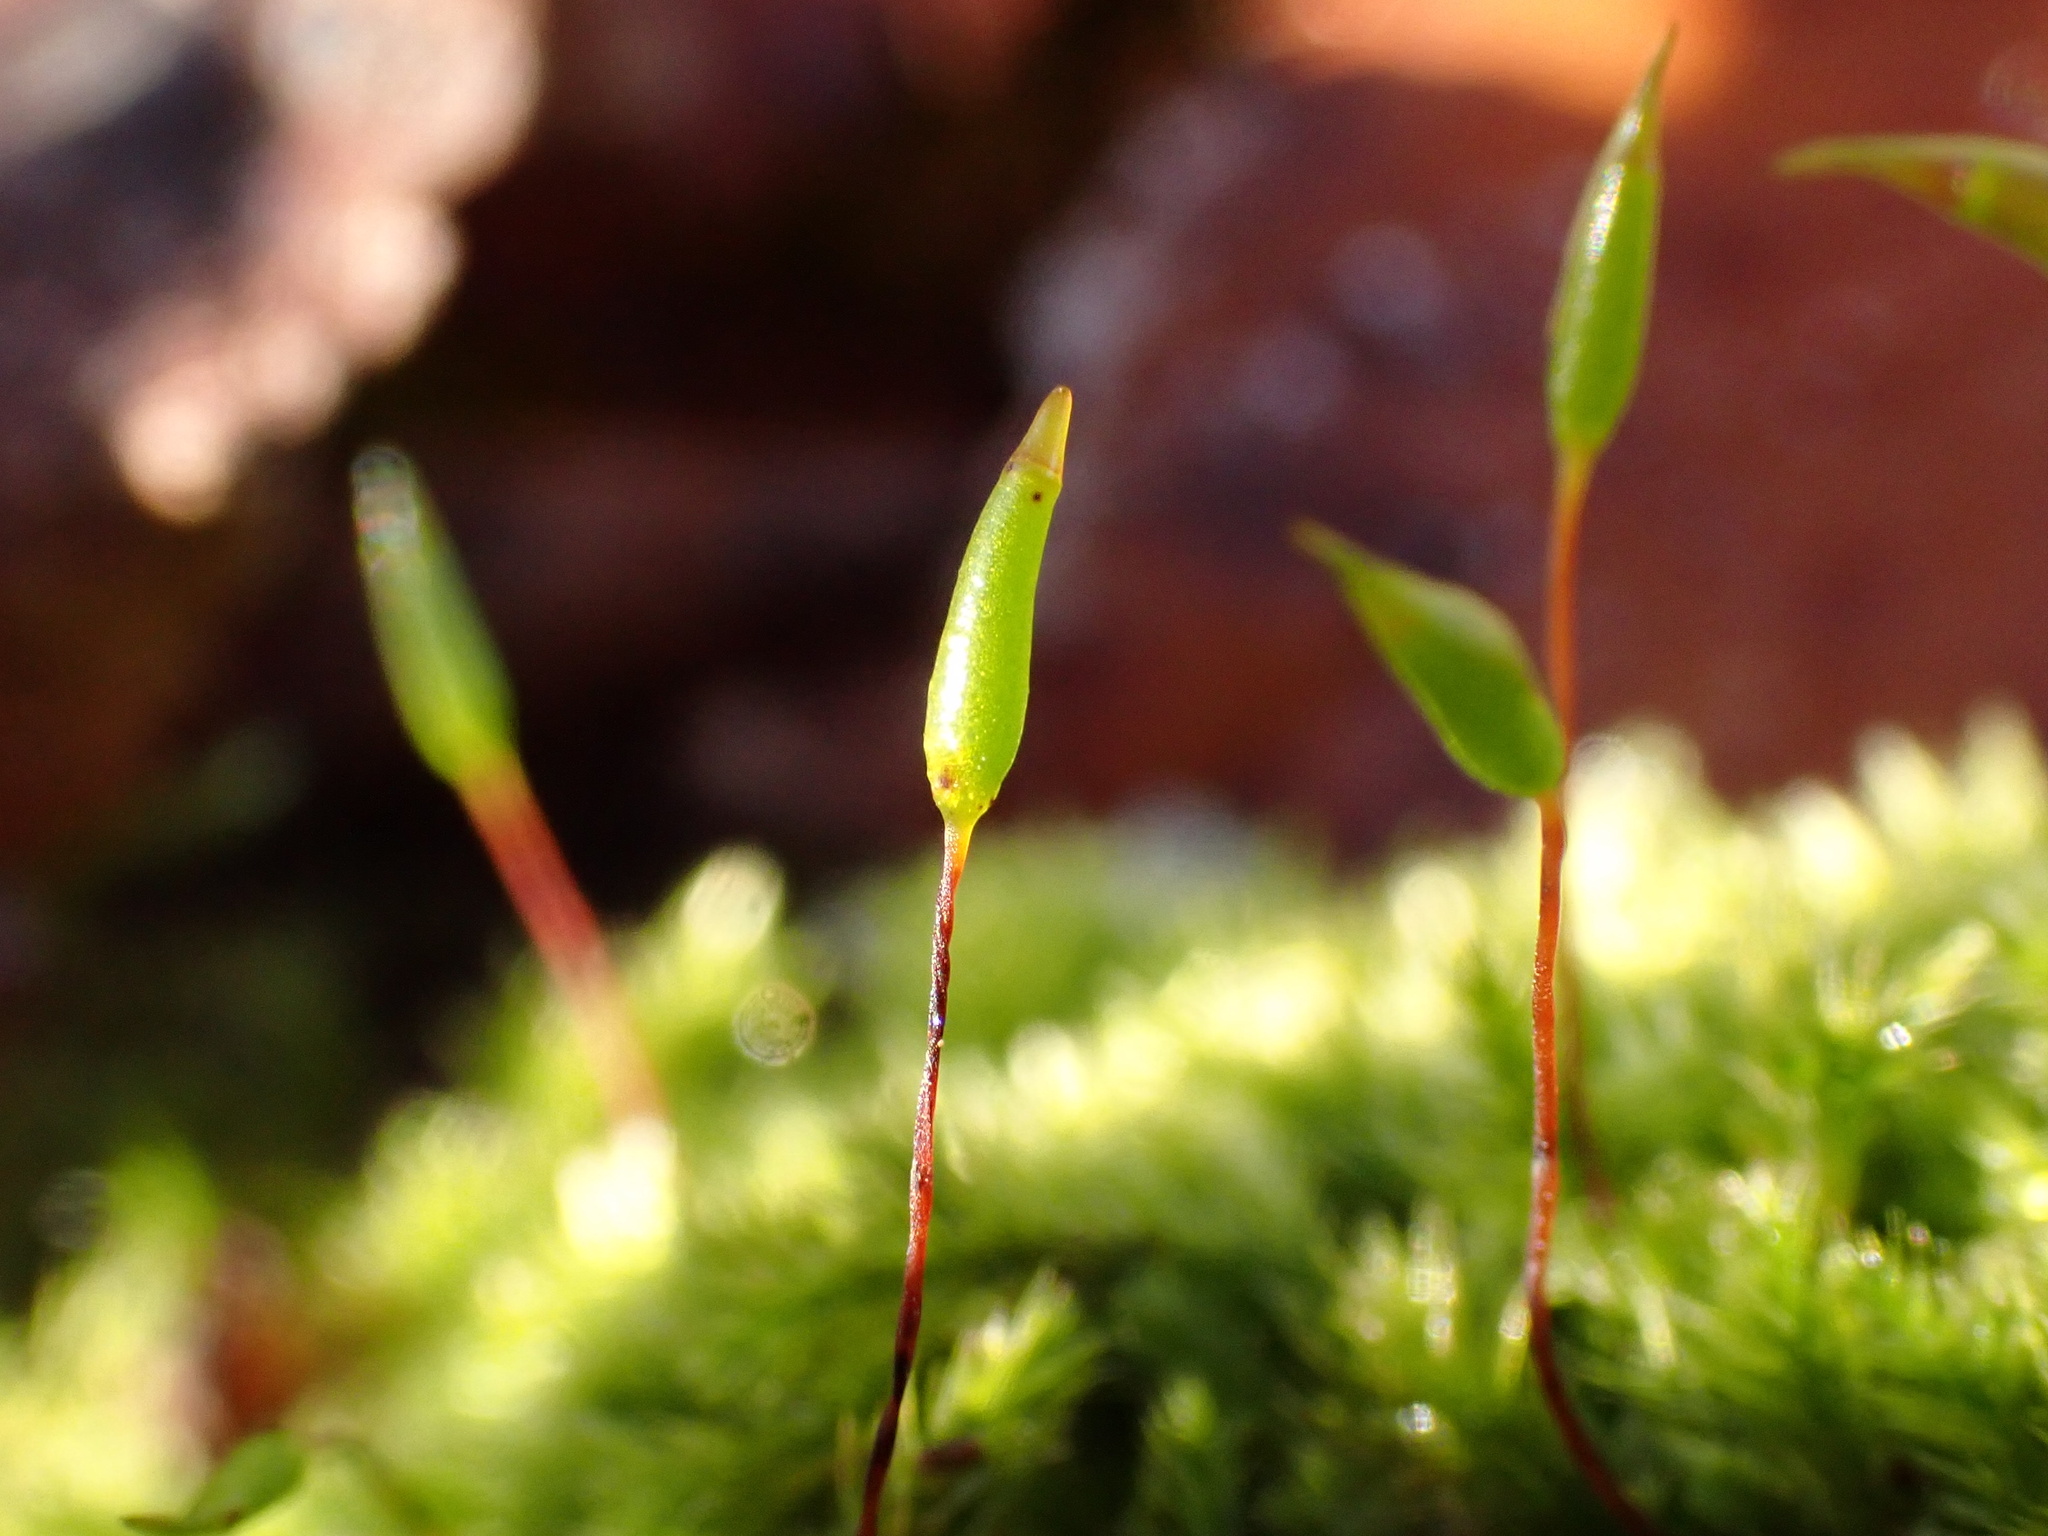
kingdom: Plantae
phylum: Bryophyta
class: Bryopsida
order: Hypnales
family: Brachytheciaceae
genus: Homalothecium
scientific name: Homalothecium sericeum
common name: Silky wall feather-moss
